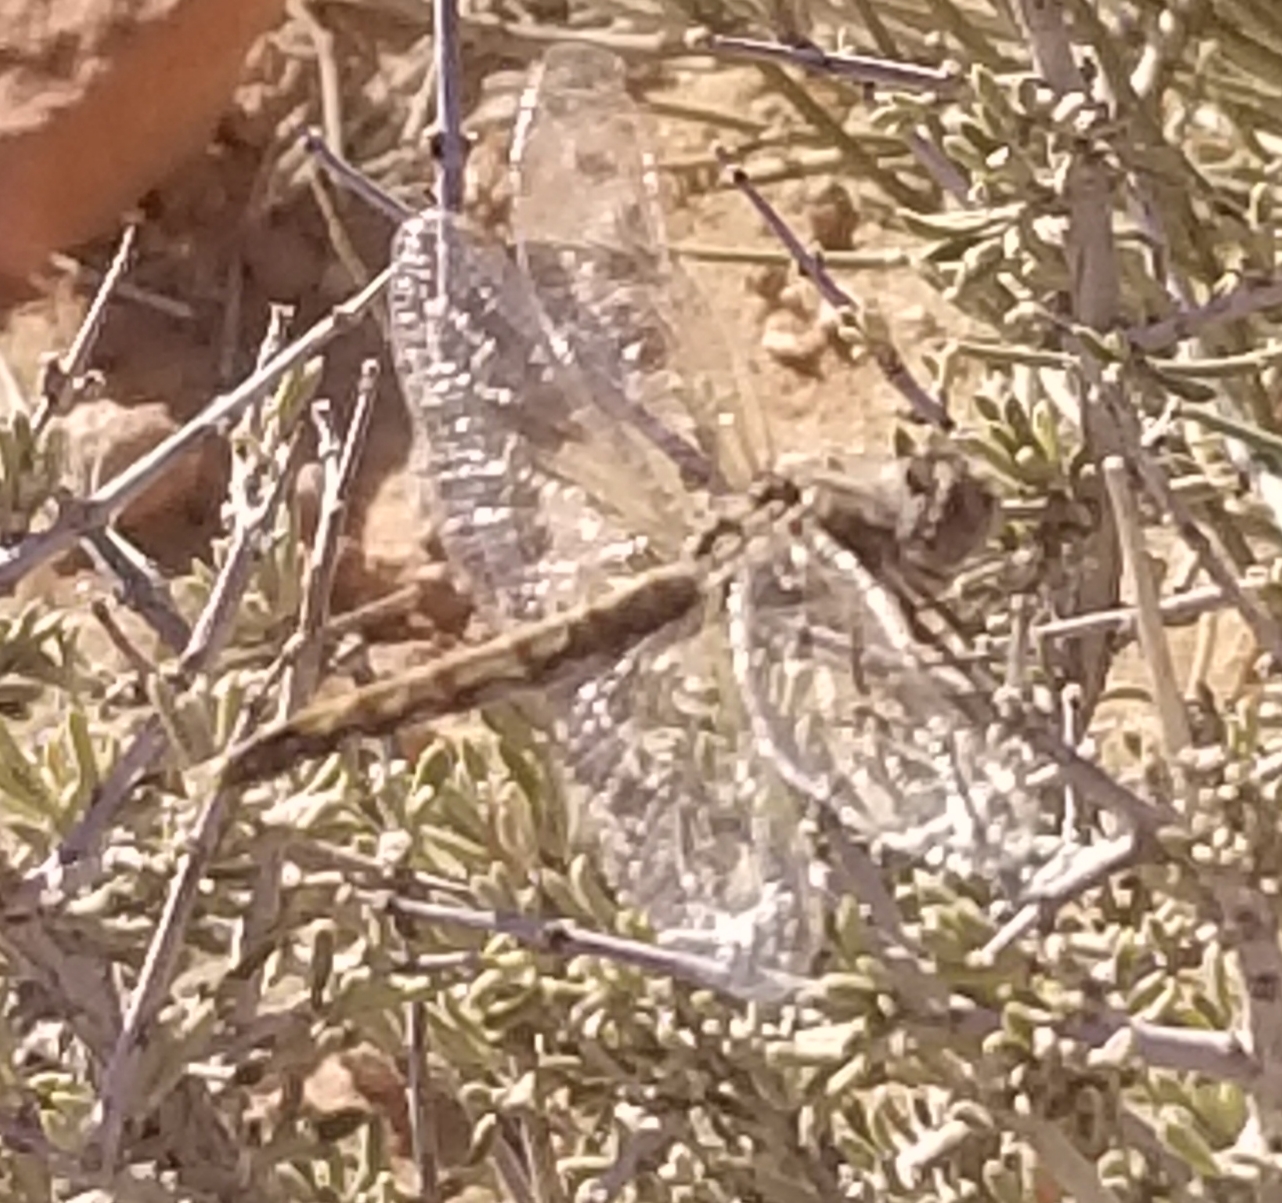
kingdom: Animalia
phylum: Arthropoda
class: Insecta
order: Odonata
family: Libellulidae
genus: Sympetrum
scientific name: Sympetrum corruptum
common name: Variegated meadowhawk
